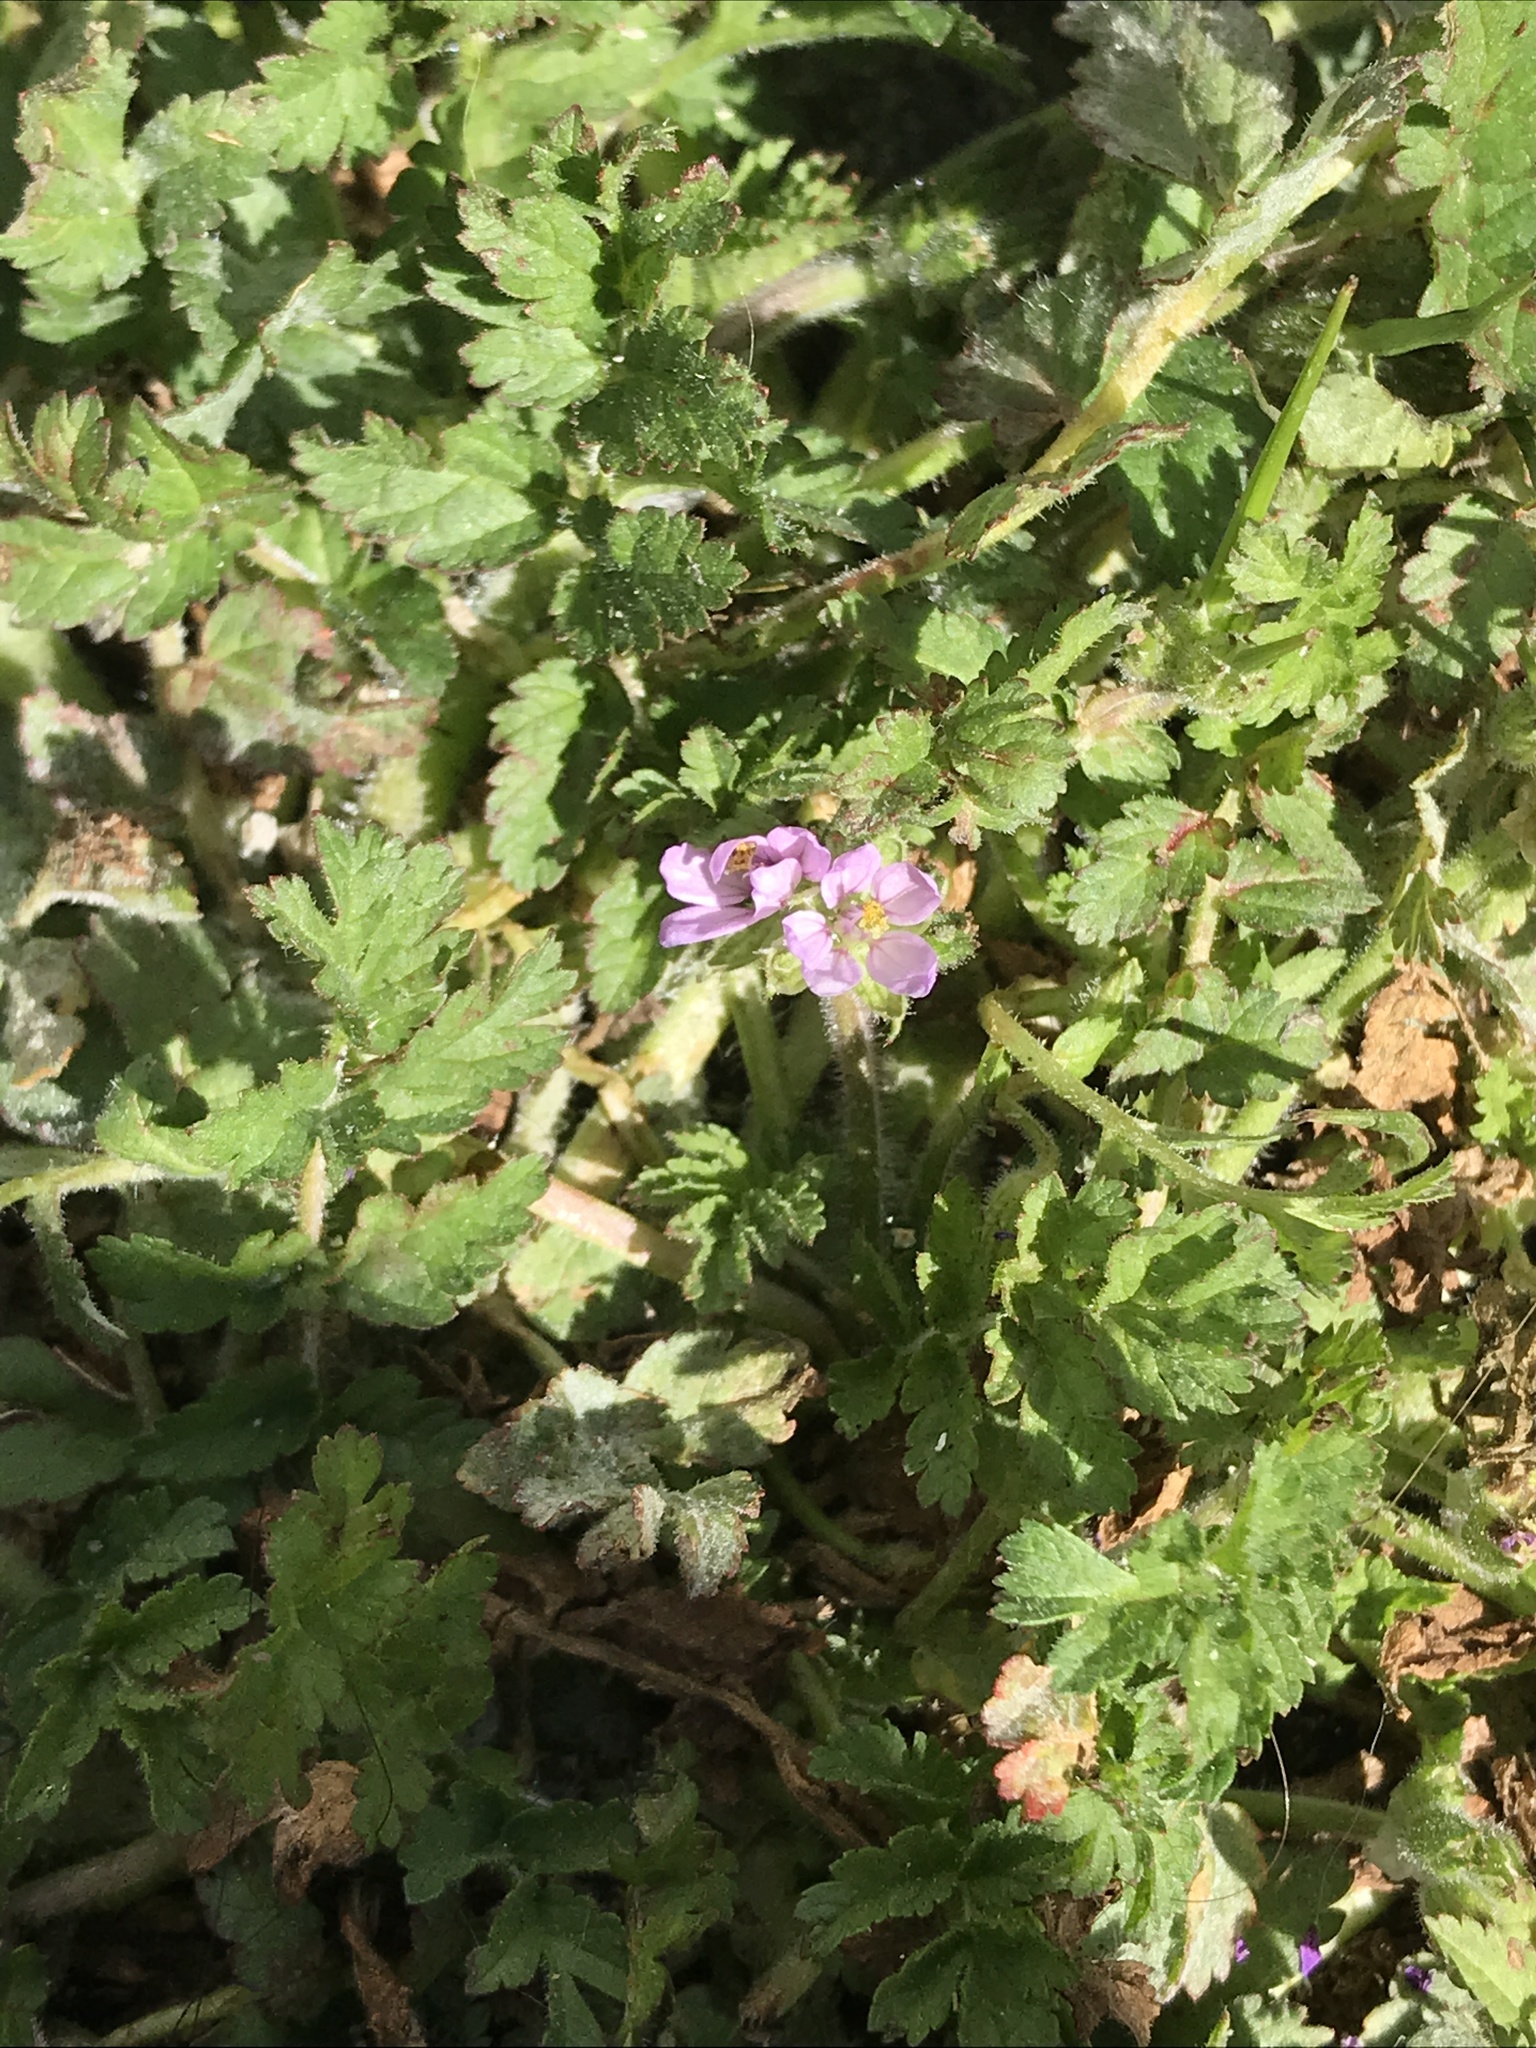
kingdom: Plantae
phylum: Tracheophyta
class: Magnoliopsida
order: Geraniales
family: Geraniaceae
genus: Erodium
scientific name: Erodium moschatum
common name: Musk stork's-bill
